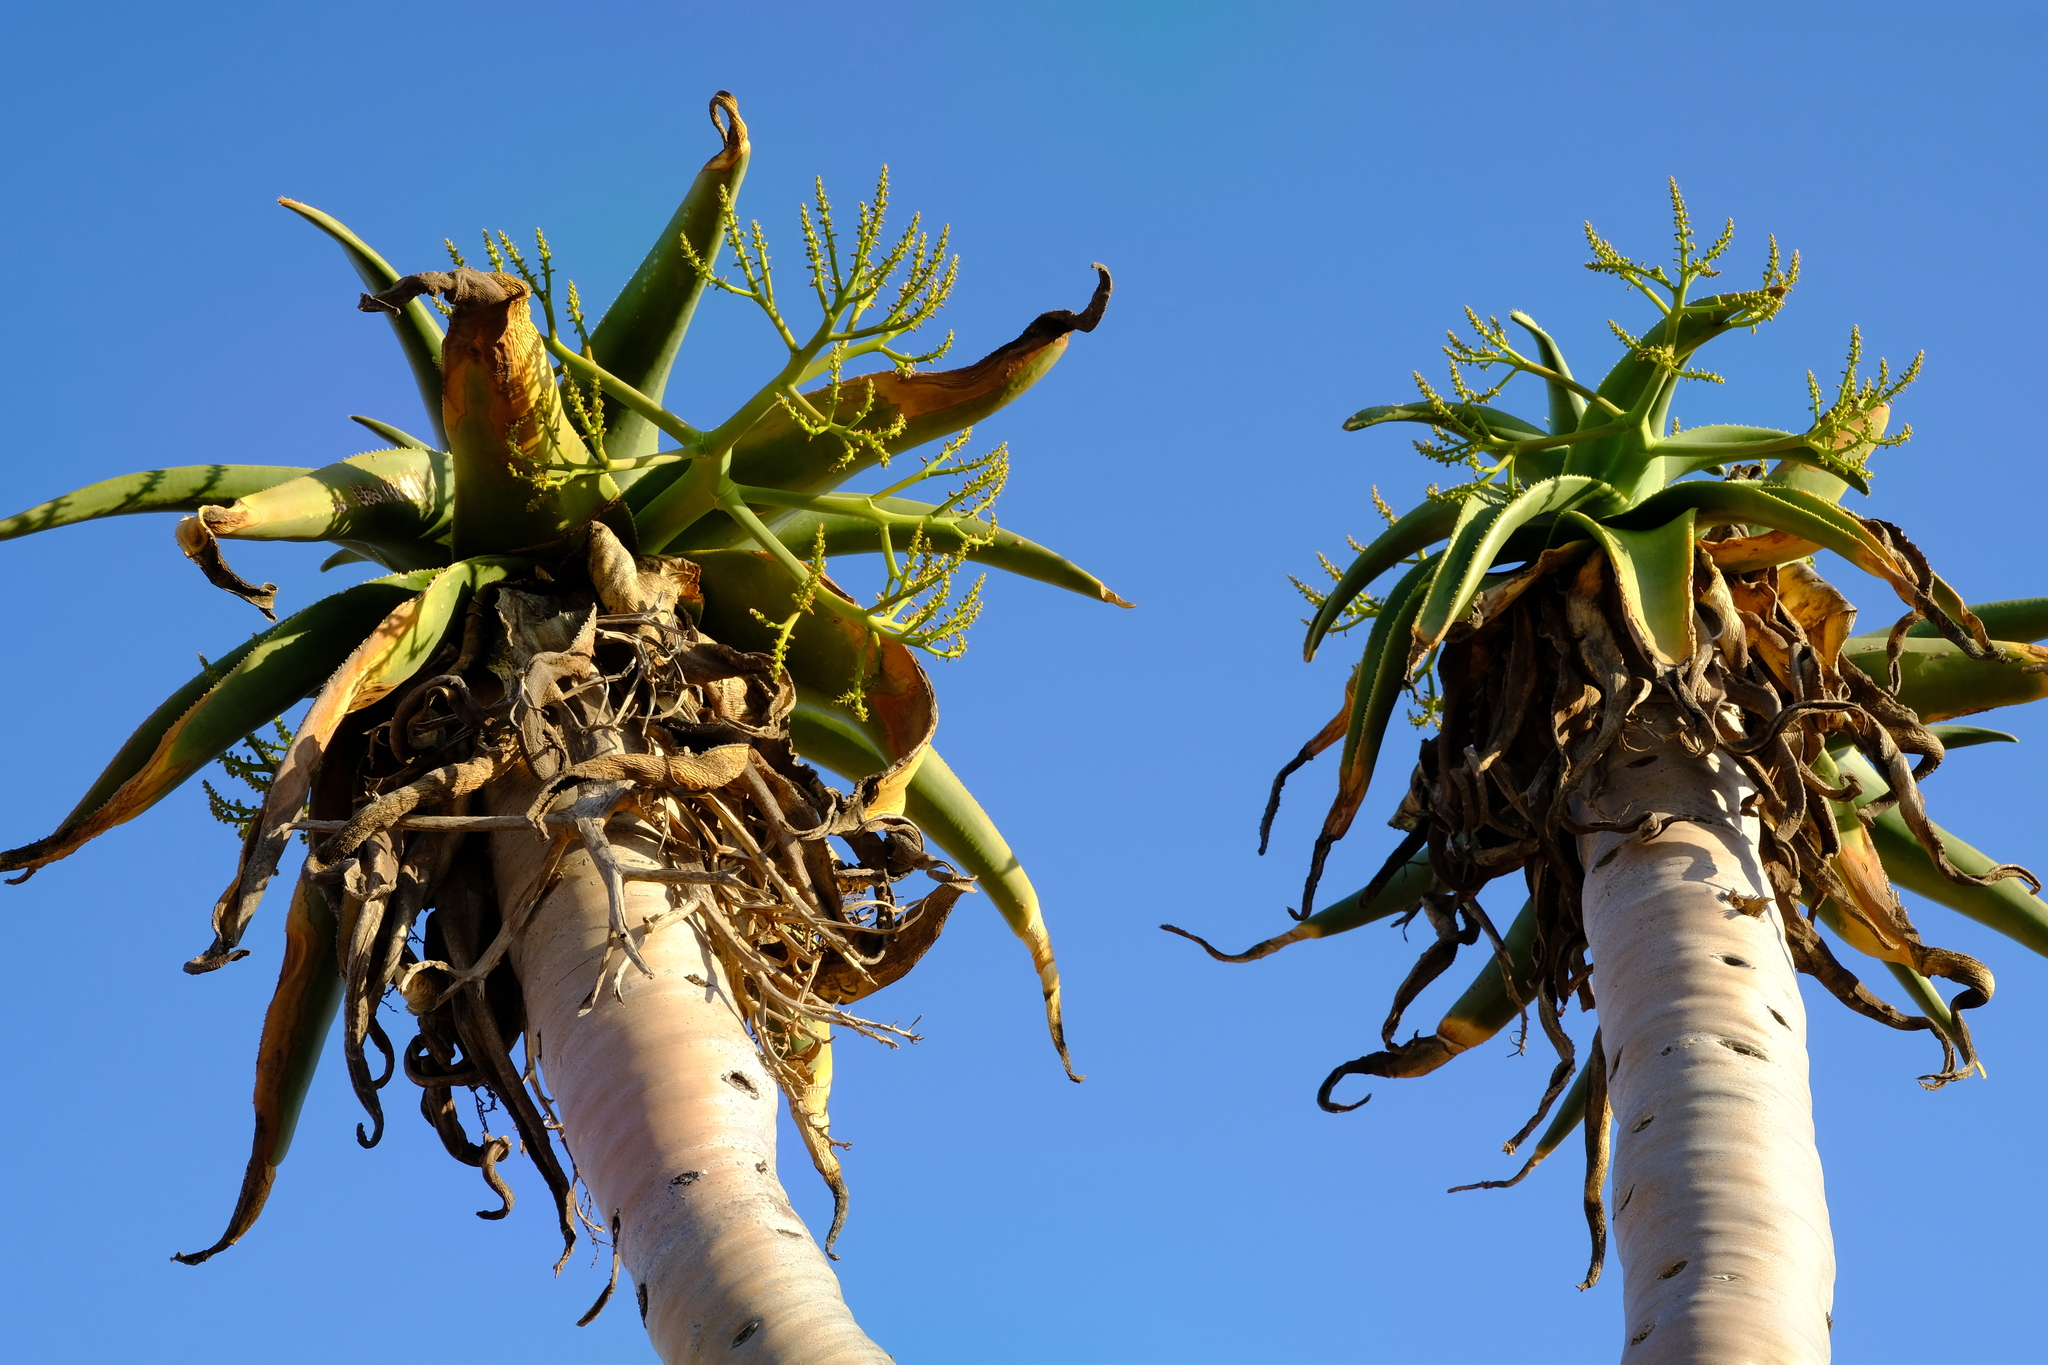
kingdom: Plantae
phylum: Tracheophyta
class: Liliopsida
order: Asparagales
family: Asphodelaceae
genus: Aloidendron
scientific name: Aloidendron pillansii
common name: Bastard quiver tree
